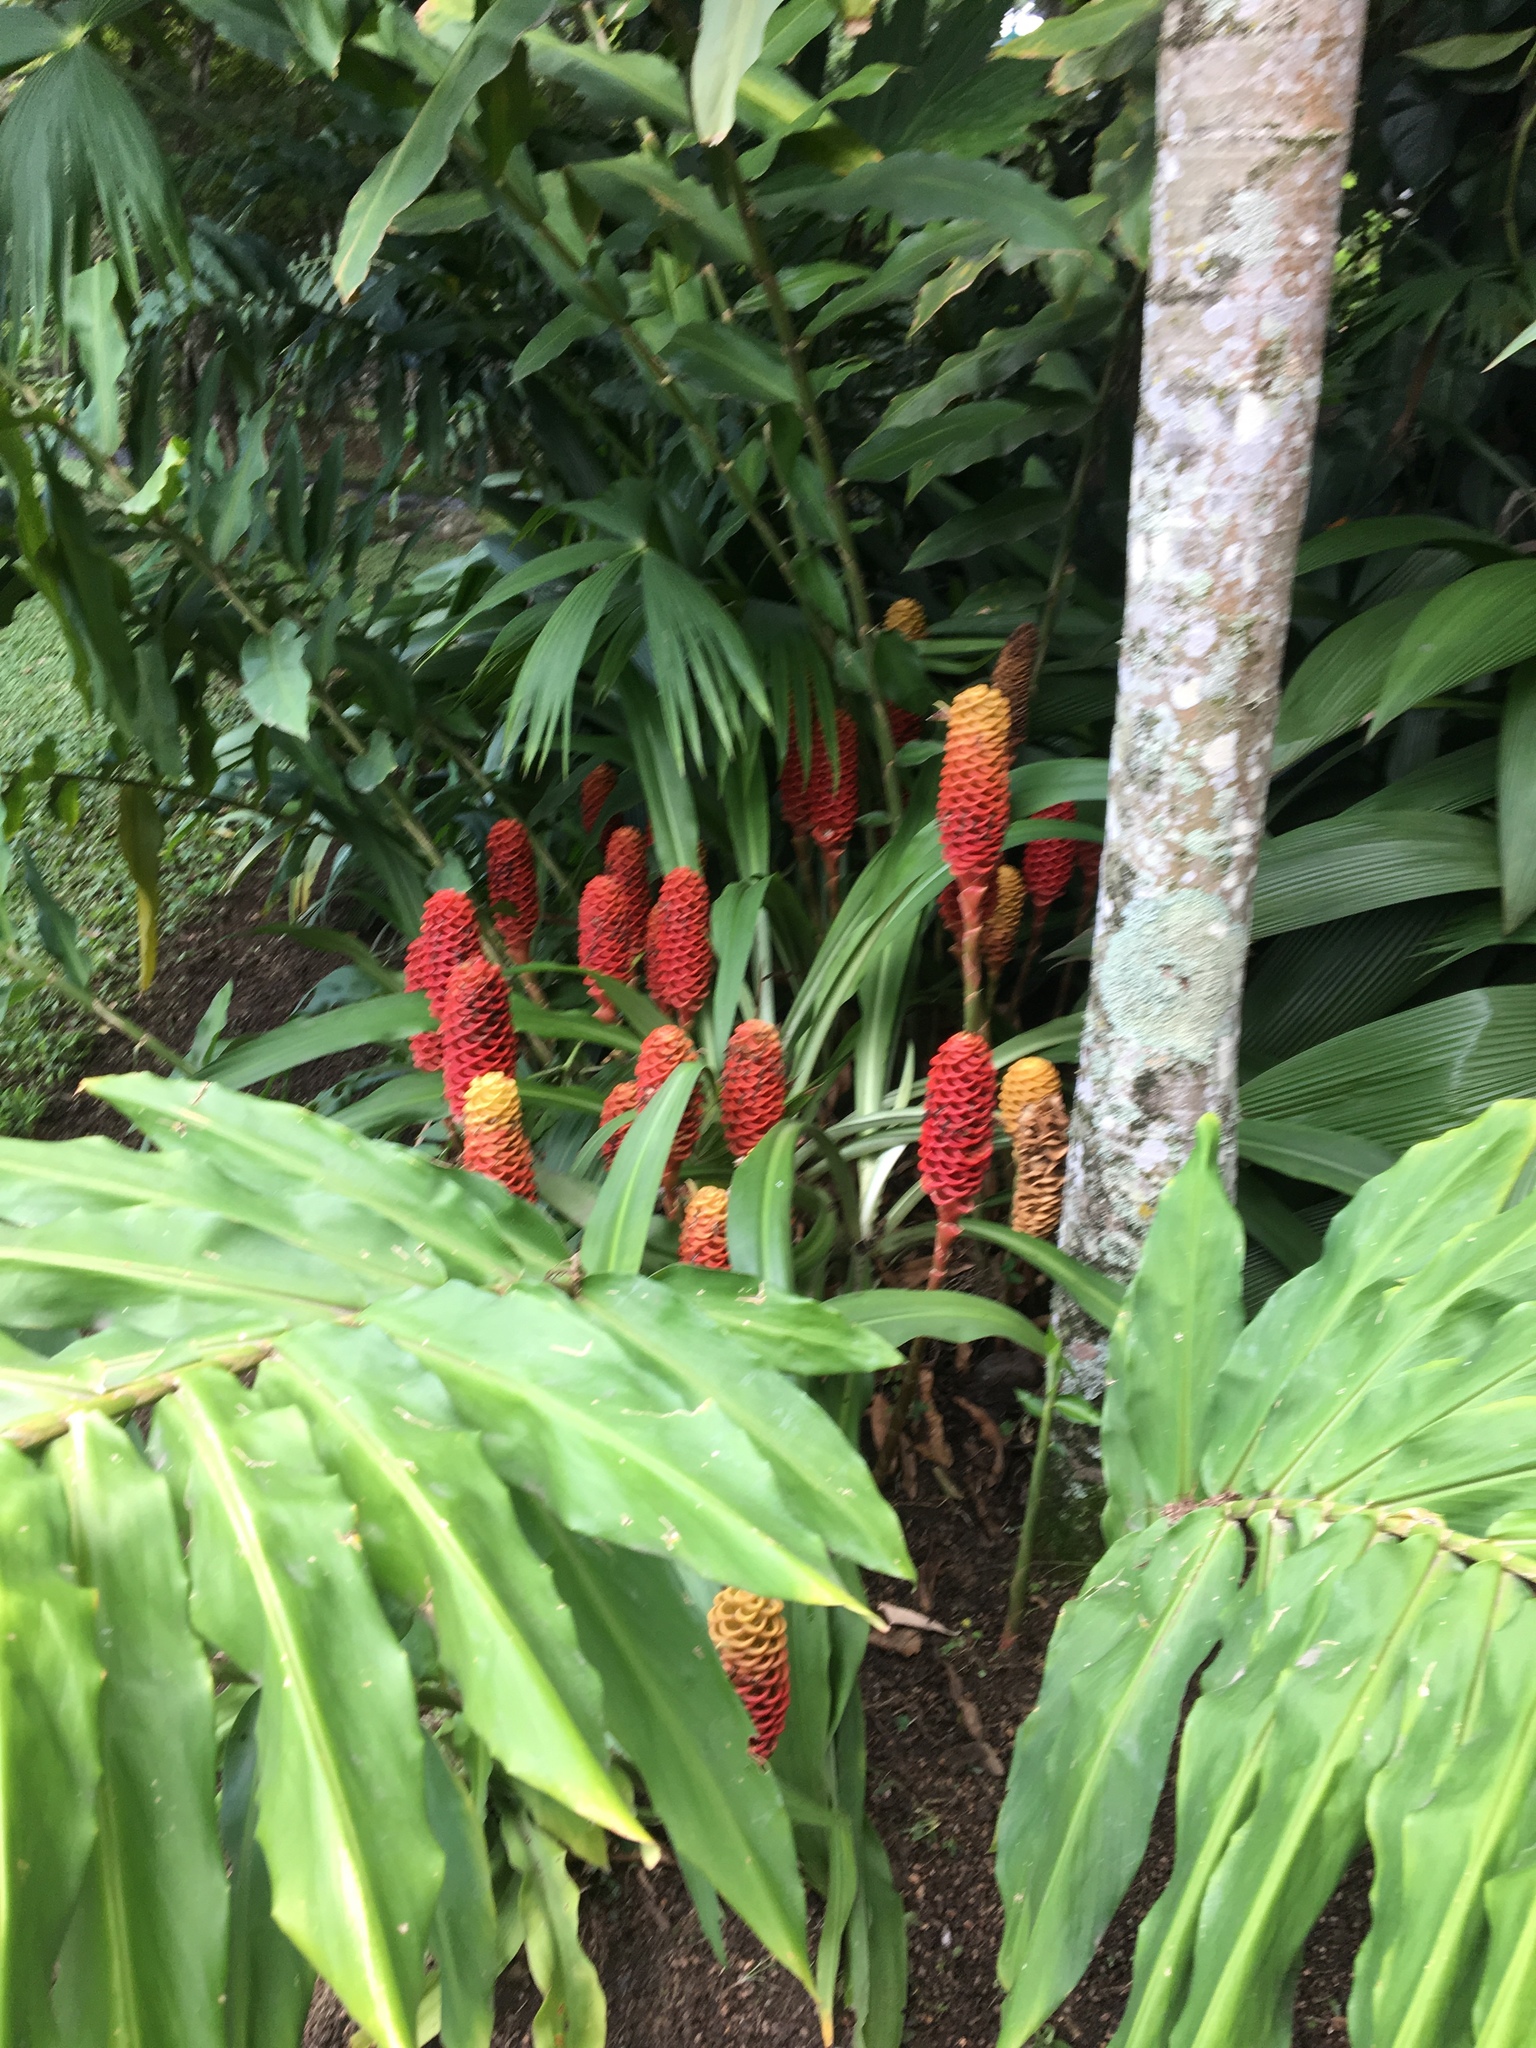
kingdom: Plantae
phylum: Tracheophyta
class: Liliopsida
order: Zingiberales
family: Zingiberaceae
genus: Zingiber
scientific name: Zingiber spectabile
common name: Beehive ginger
